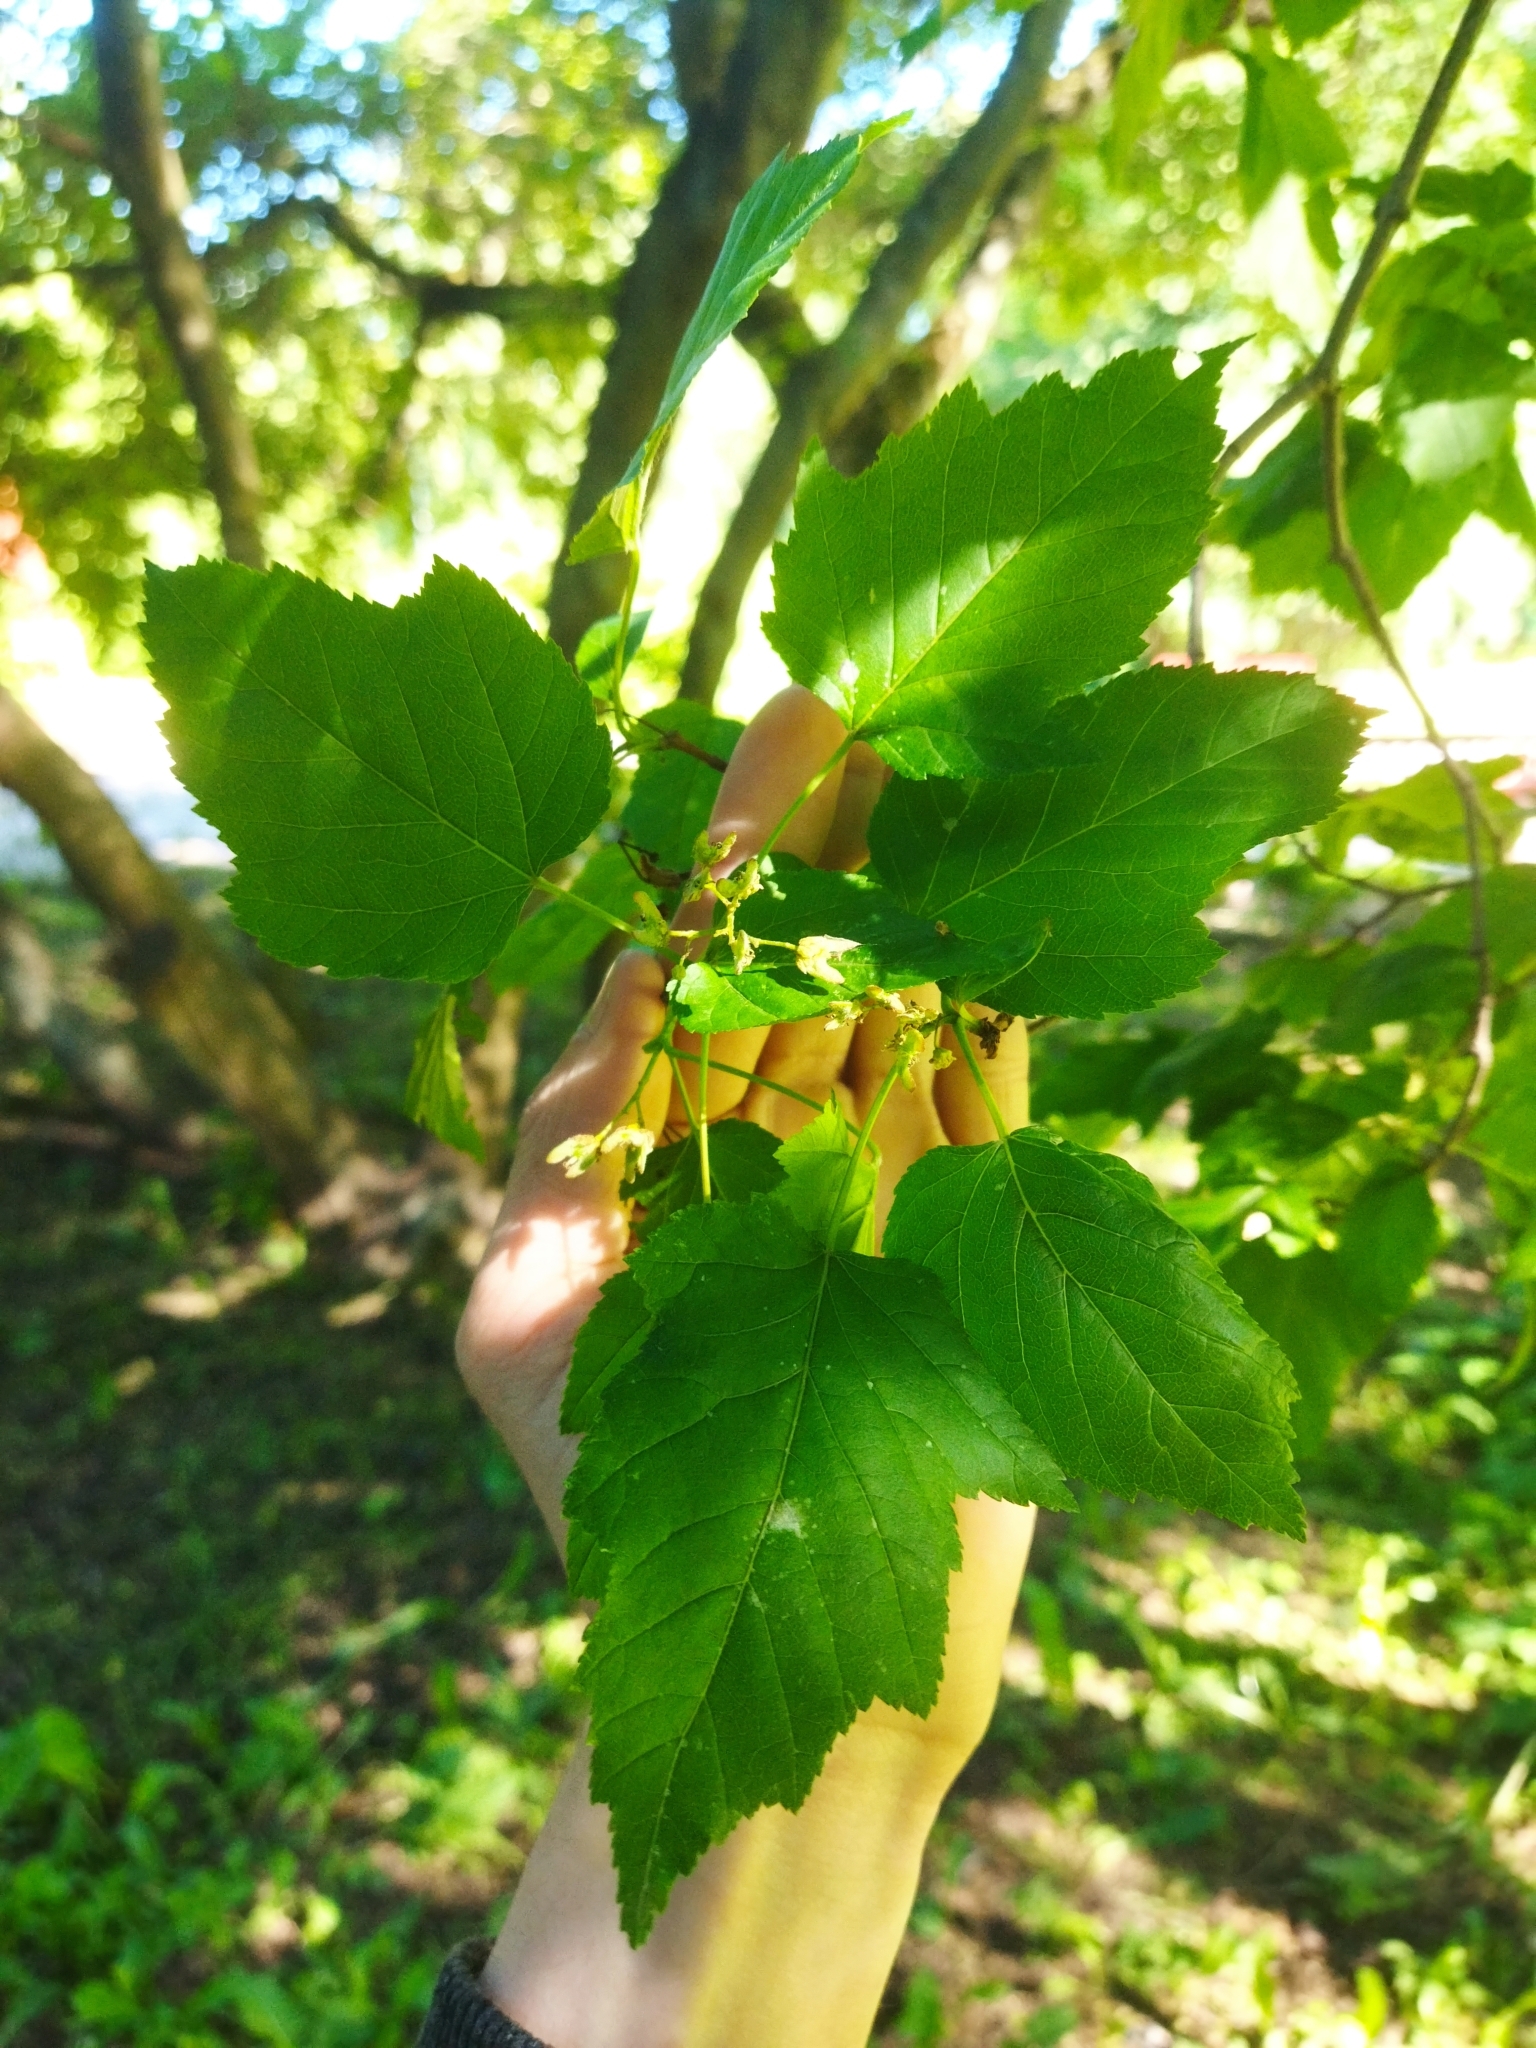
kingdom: Plantae
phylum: Tracheophyta
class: Magnoliopsida
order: Sapindales
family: Sapindaceae
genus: Acer
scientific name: Acer tataricum
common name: Tartar maple
